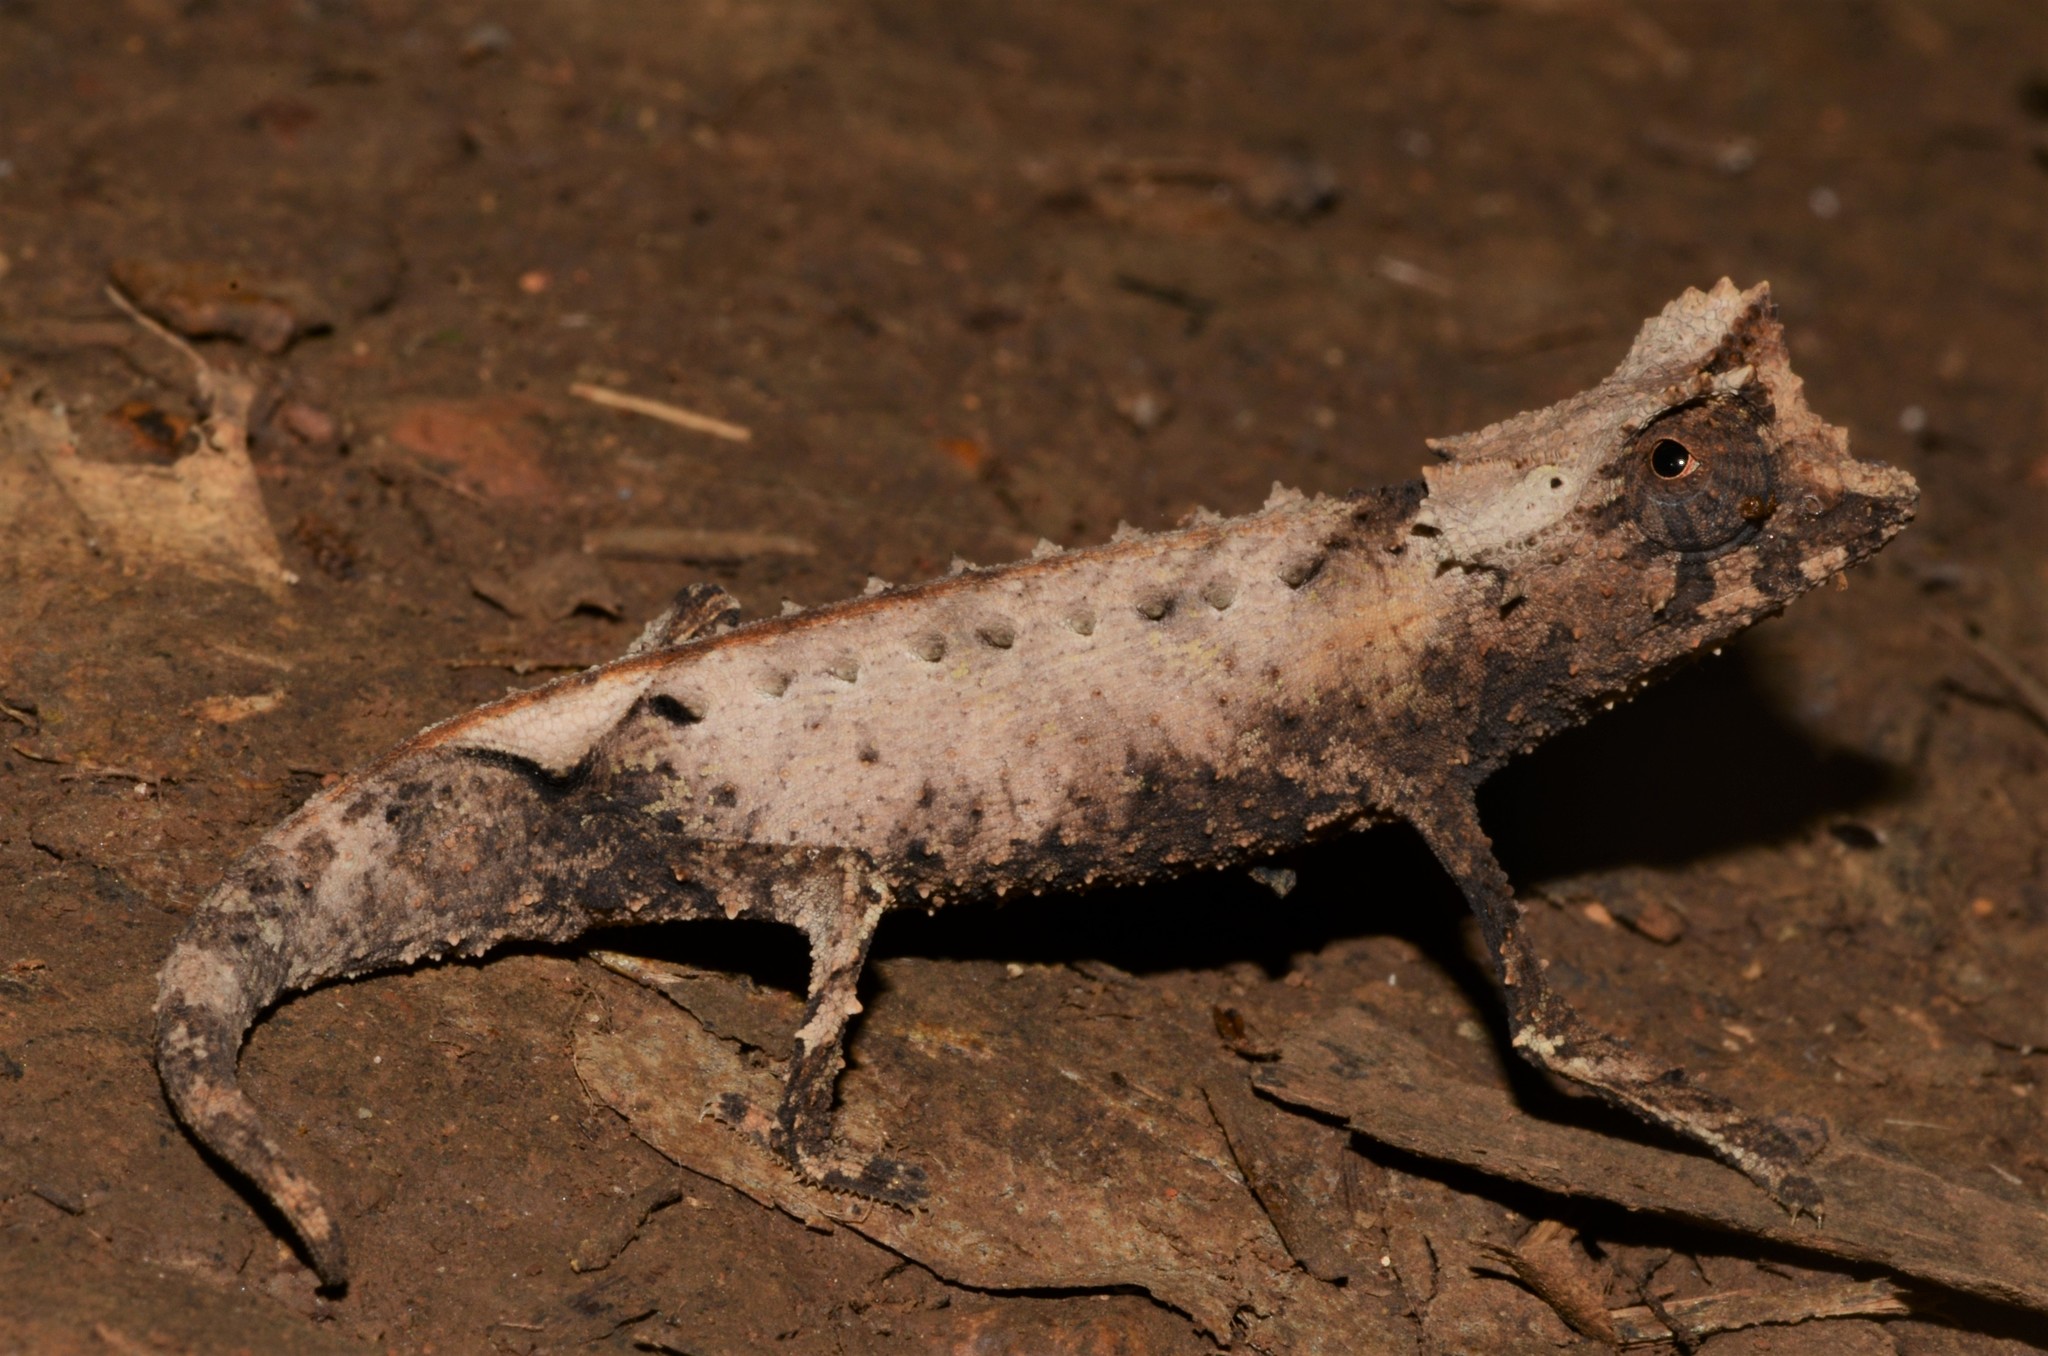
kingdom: Animalia
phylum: Chordata
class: Squamata
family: Chamaeleonidae
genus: Brookesia
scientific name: Brookesia stumpffi
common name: Plated leaf chameleon
